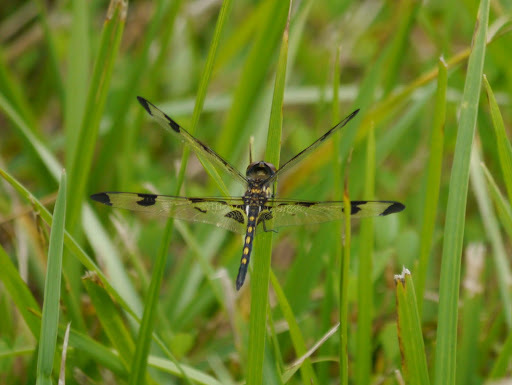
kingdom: Animalia
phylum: Arthropoda
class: Insecta
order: Odonata
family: Libellulidae
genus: Celithemis
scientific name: Celithemis fasciata
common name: Banded pennant
